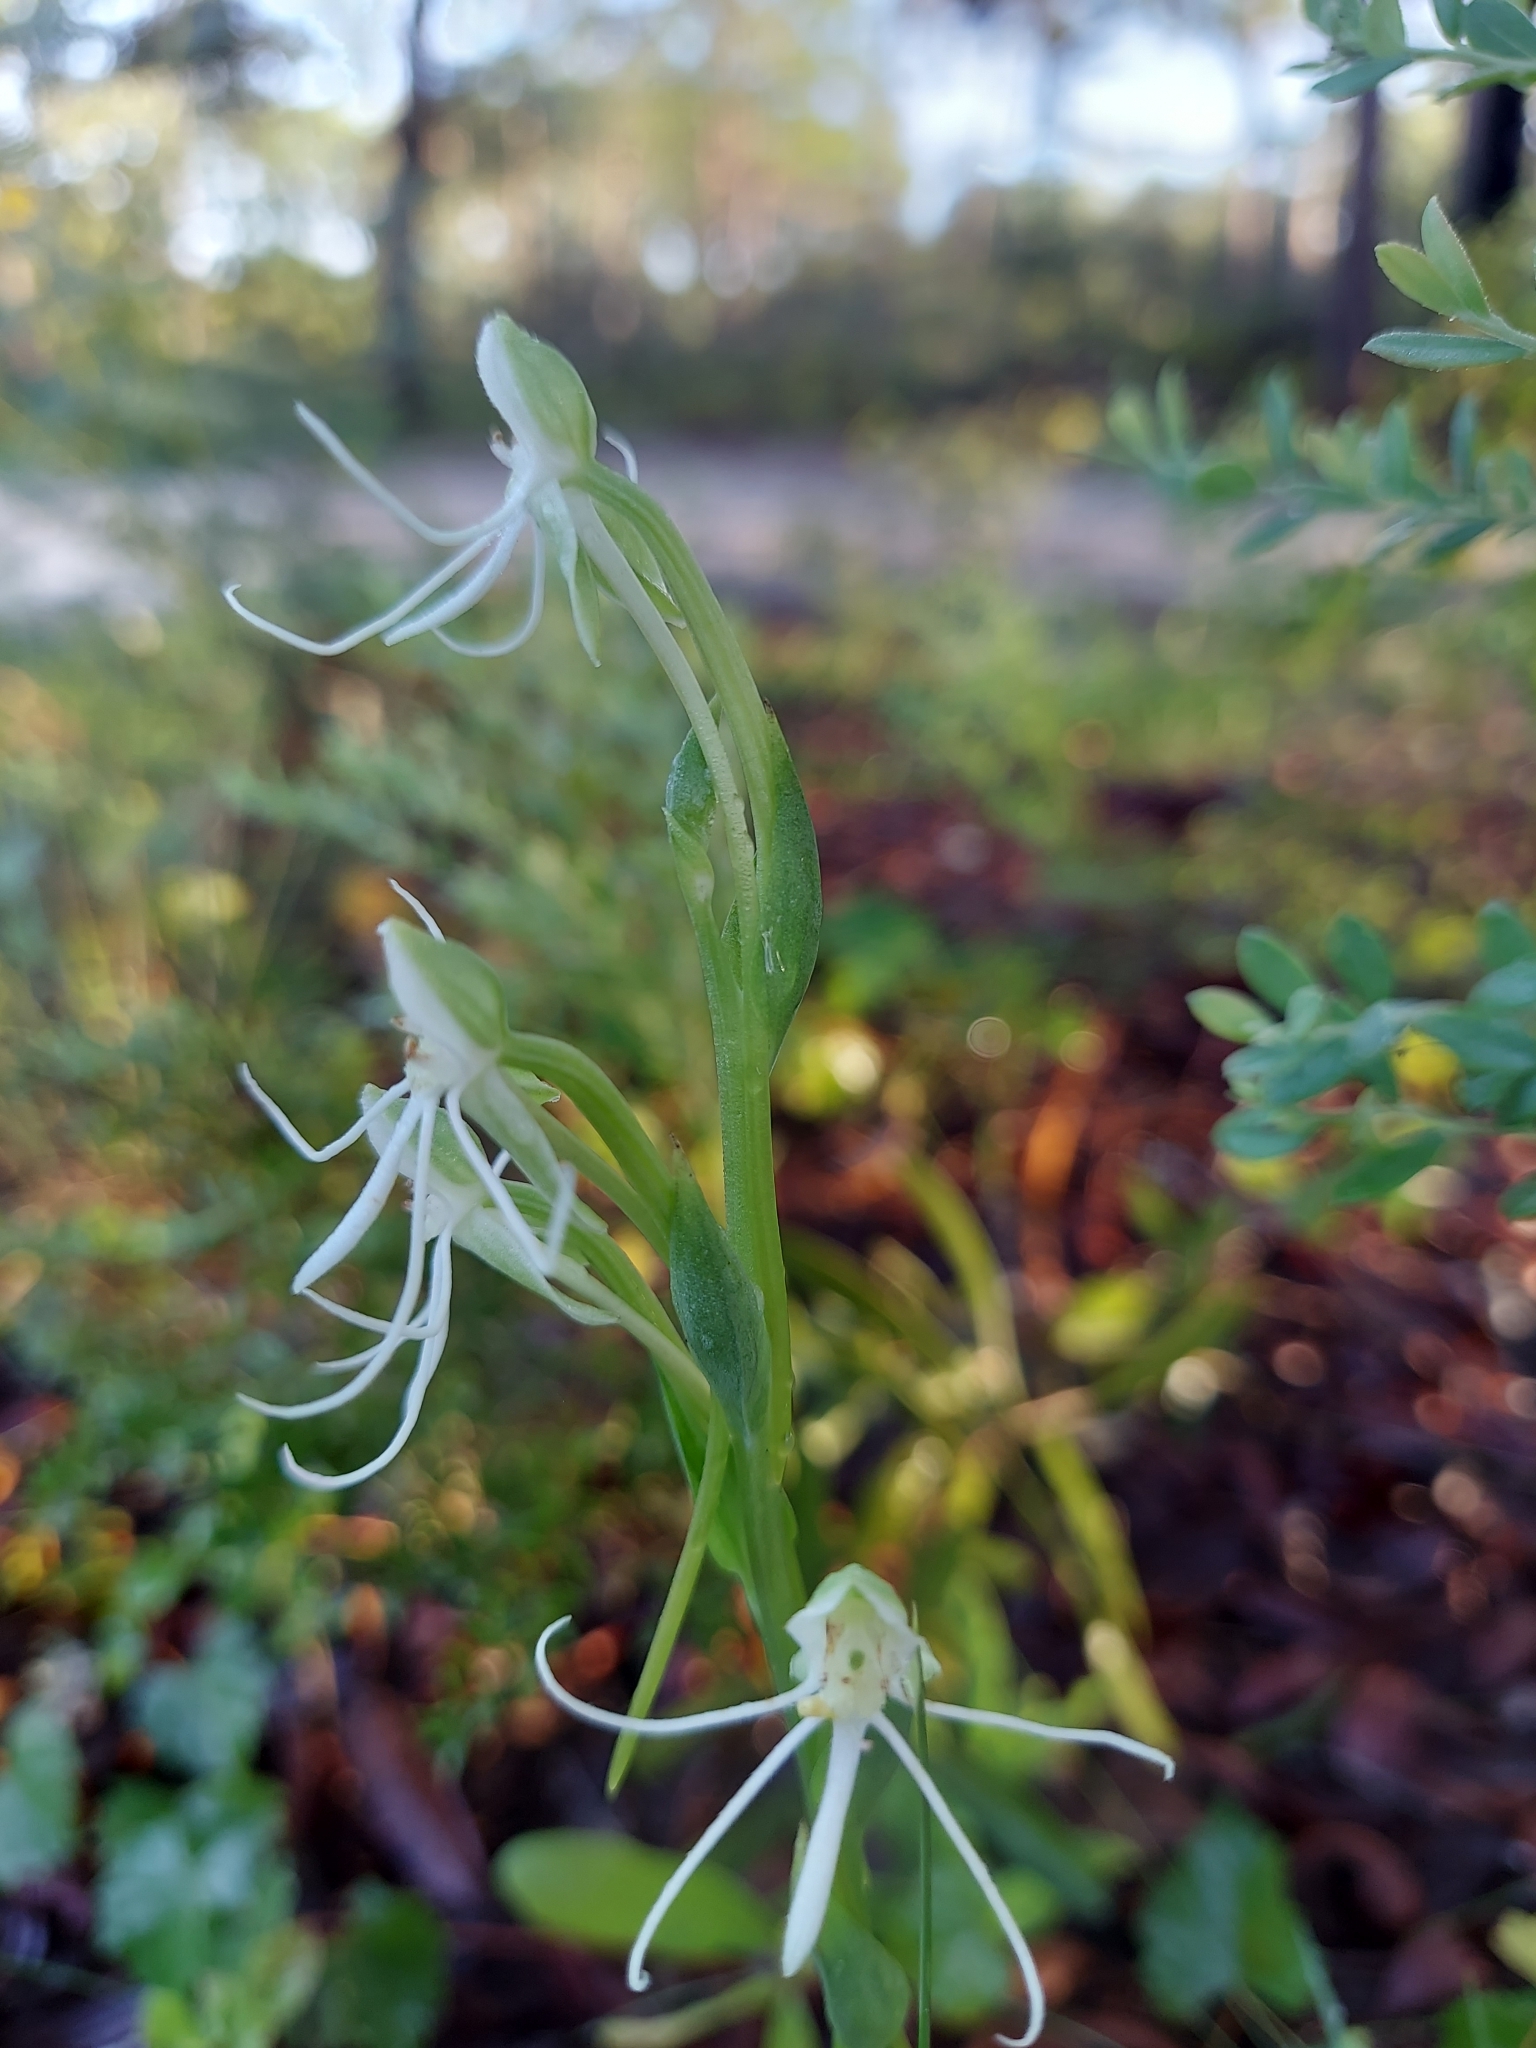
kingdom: Plantae
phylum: Tracheophyta
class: Liliopsida
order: Asparagales
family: Orchidaceae
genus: Habenaria
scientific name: Habenaria quinqueseta
